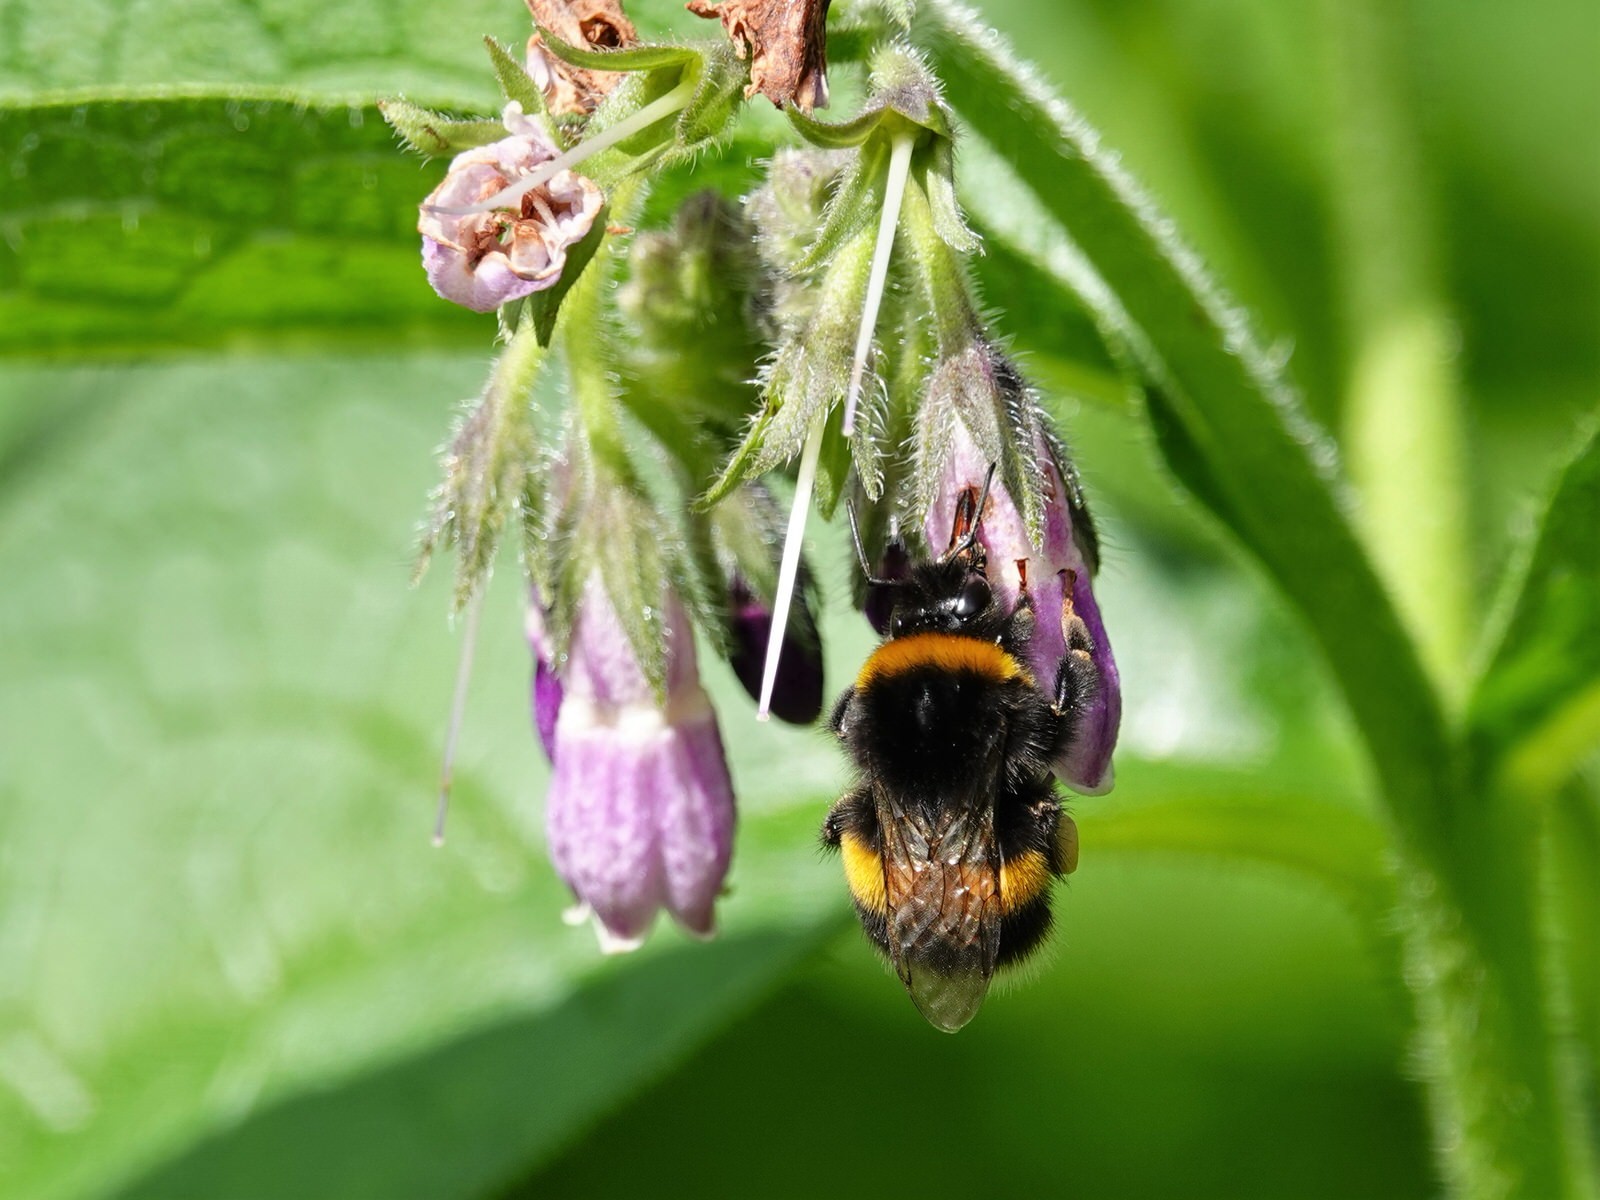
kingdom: Animalia
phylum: Arthropoda
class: Insecta
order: Hymenoptera
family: Apidae
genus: Bombus
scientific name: Bombus terrestris
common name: Buff-tailed bumblebee
